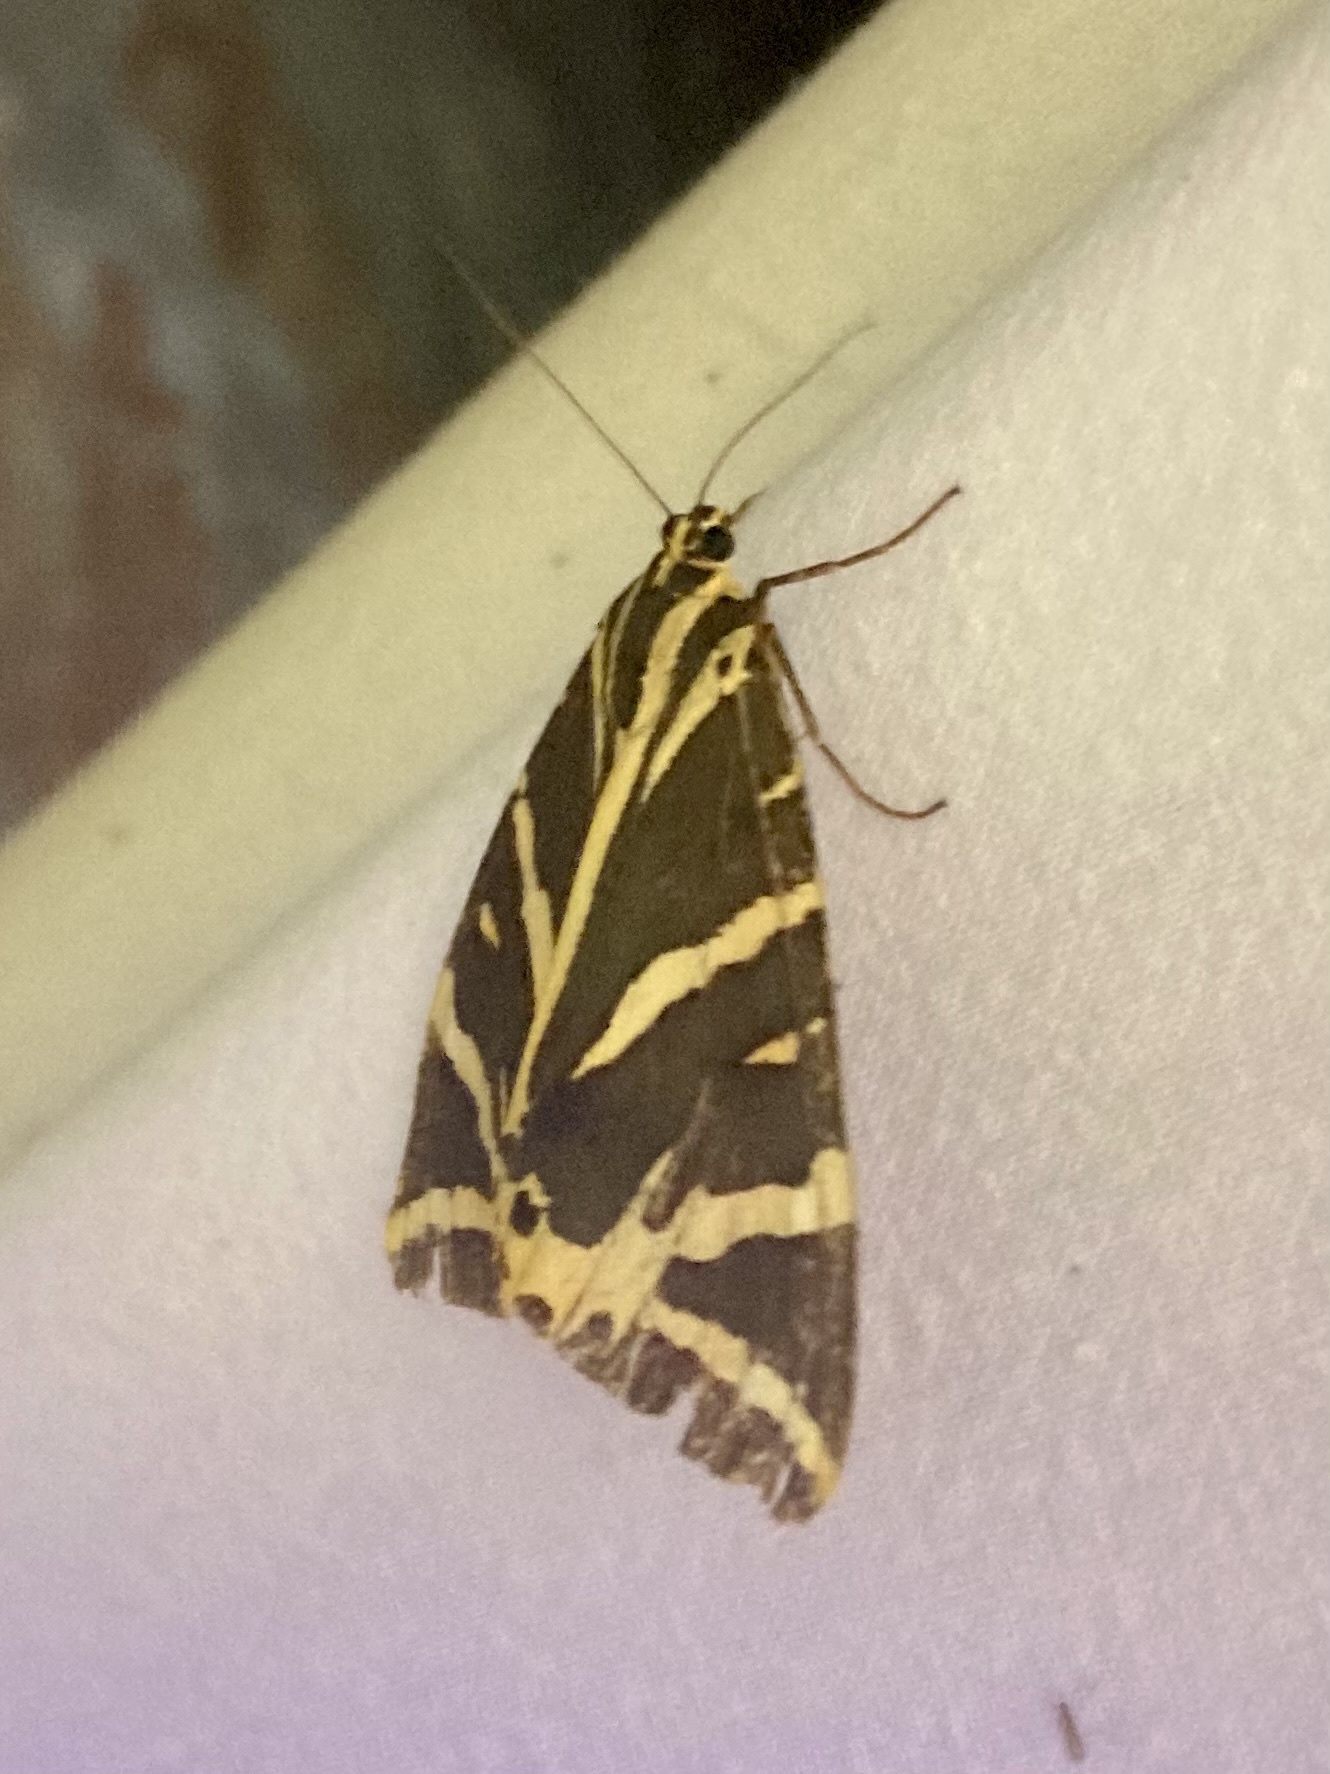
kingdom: Animalia
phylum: Arthropoda
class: Insecta
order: Lepidoptera
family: Erebidae
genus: Euplagia
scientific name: Euplagia quadripunctaria
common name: Jersey tiger
